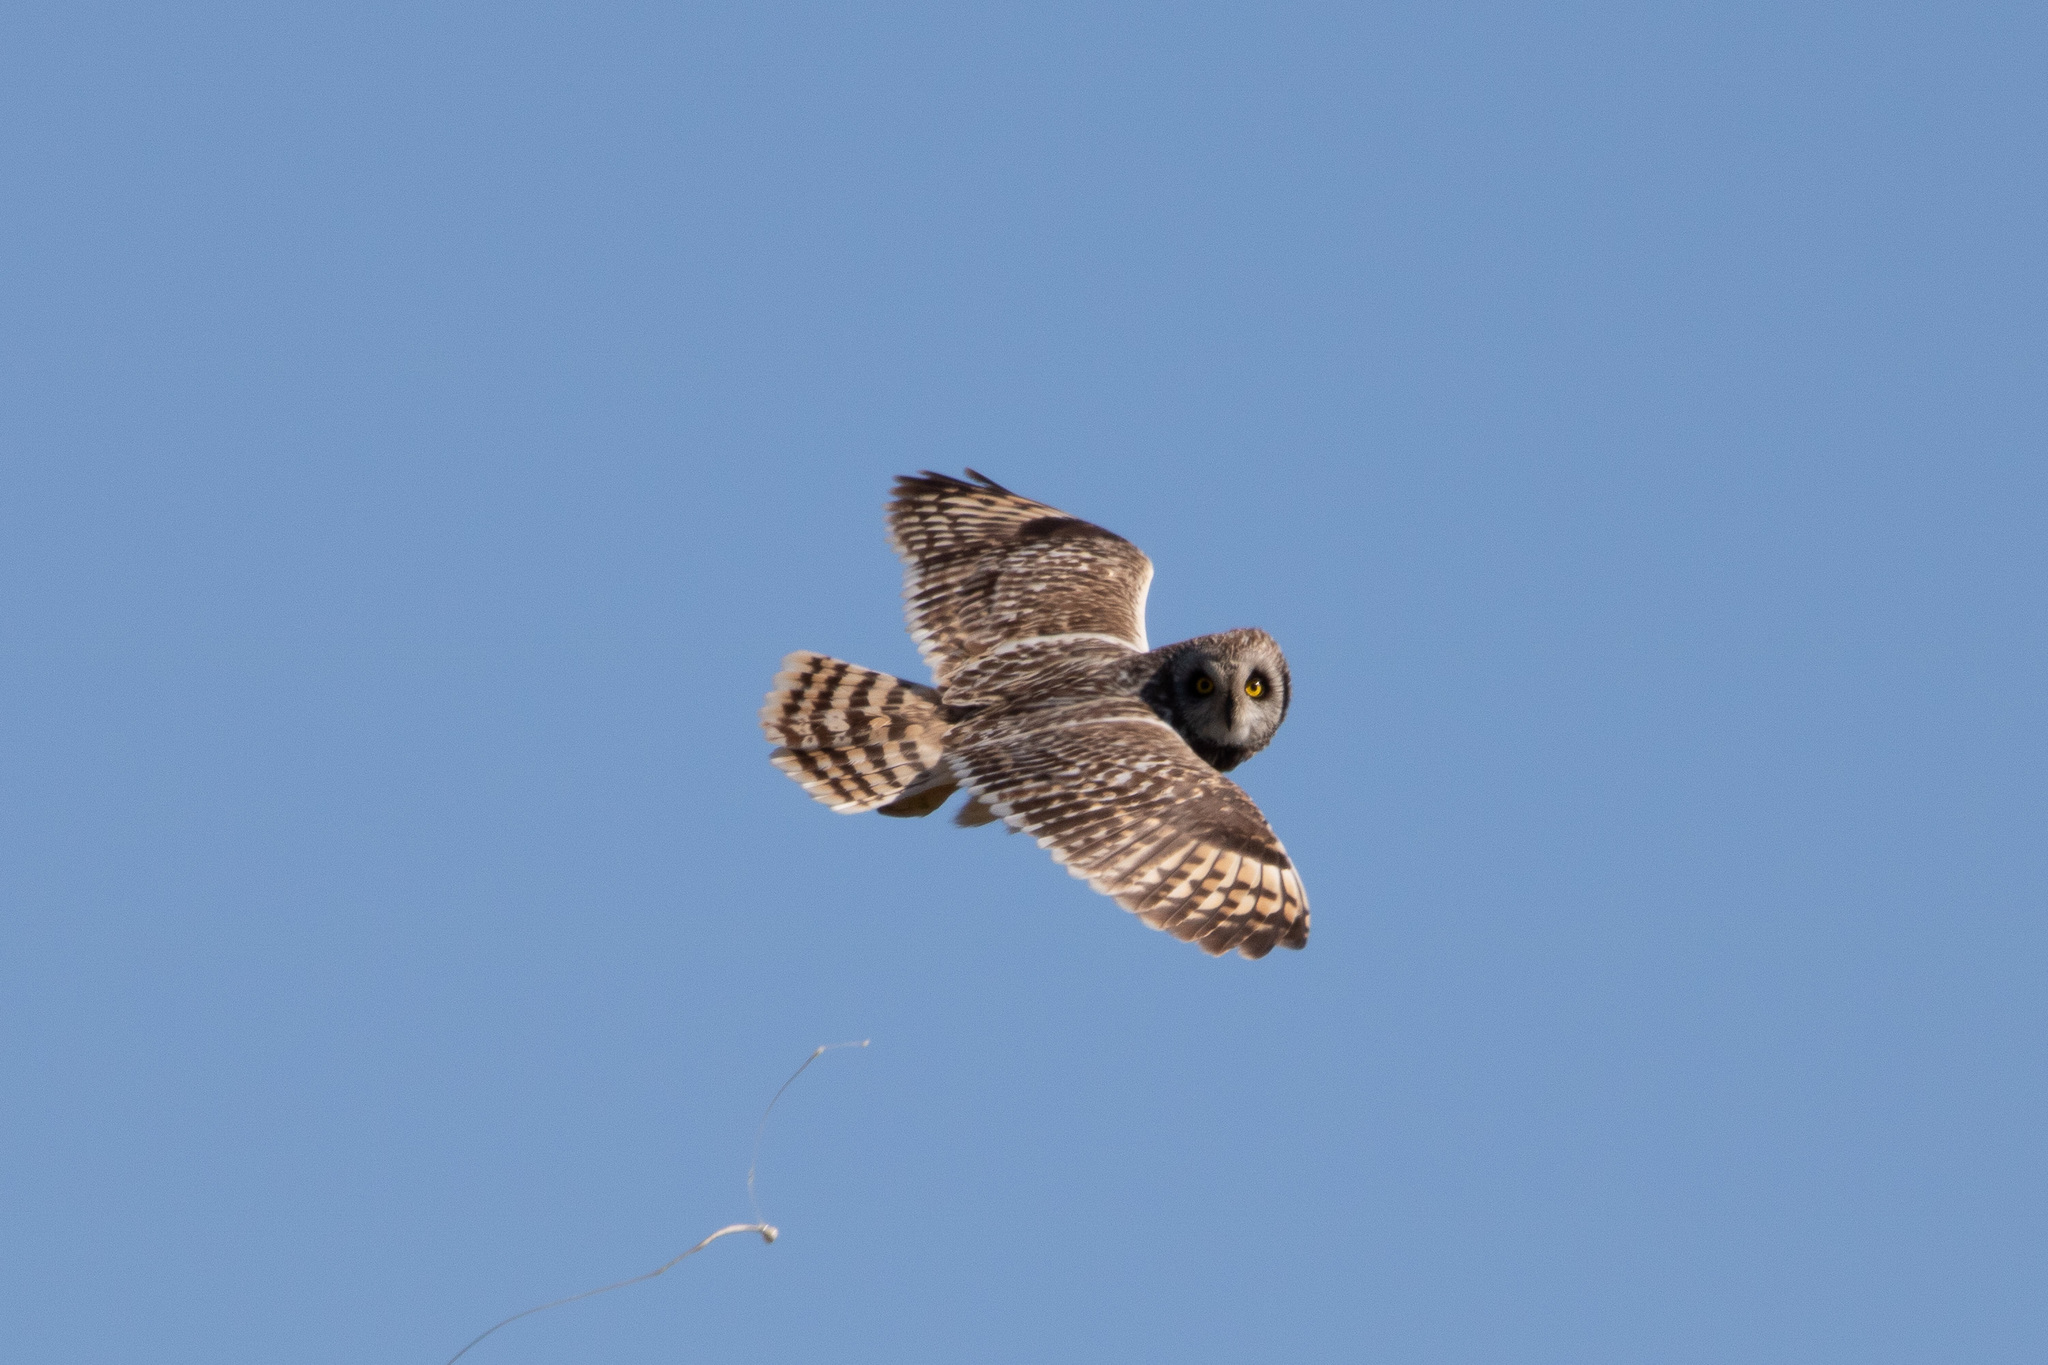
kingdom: Animalia
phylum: Chordata
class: Aves
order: Strigiformes
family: Strigidae
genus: Asio
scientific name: Asio flammeus
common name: Short-eared owl
